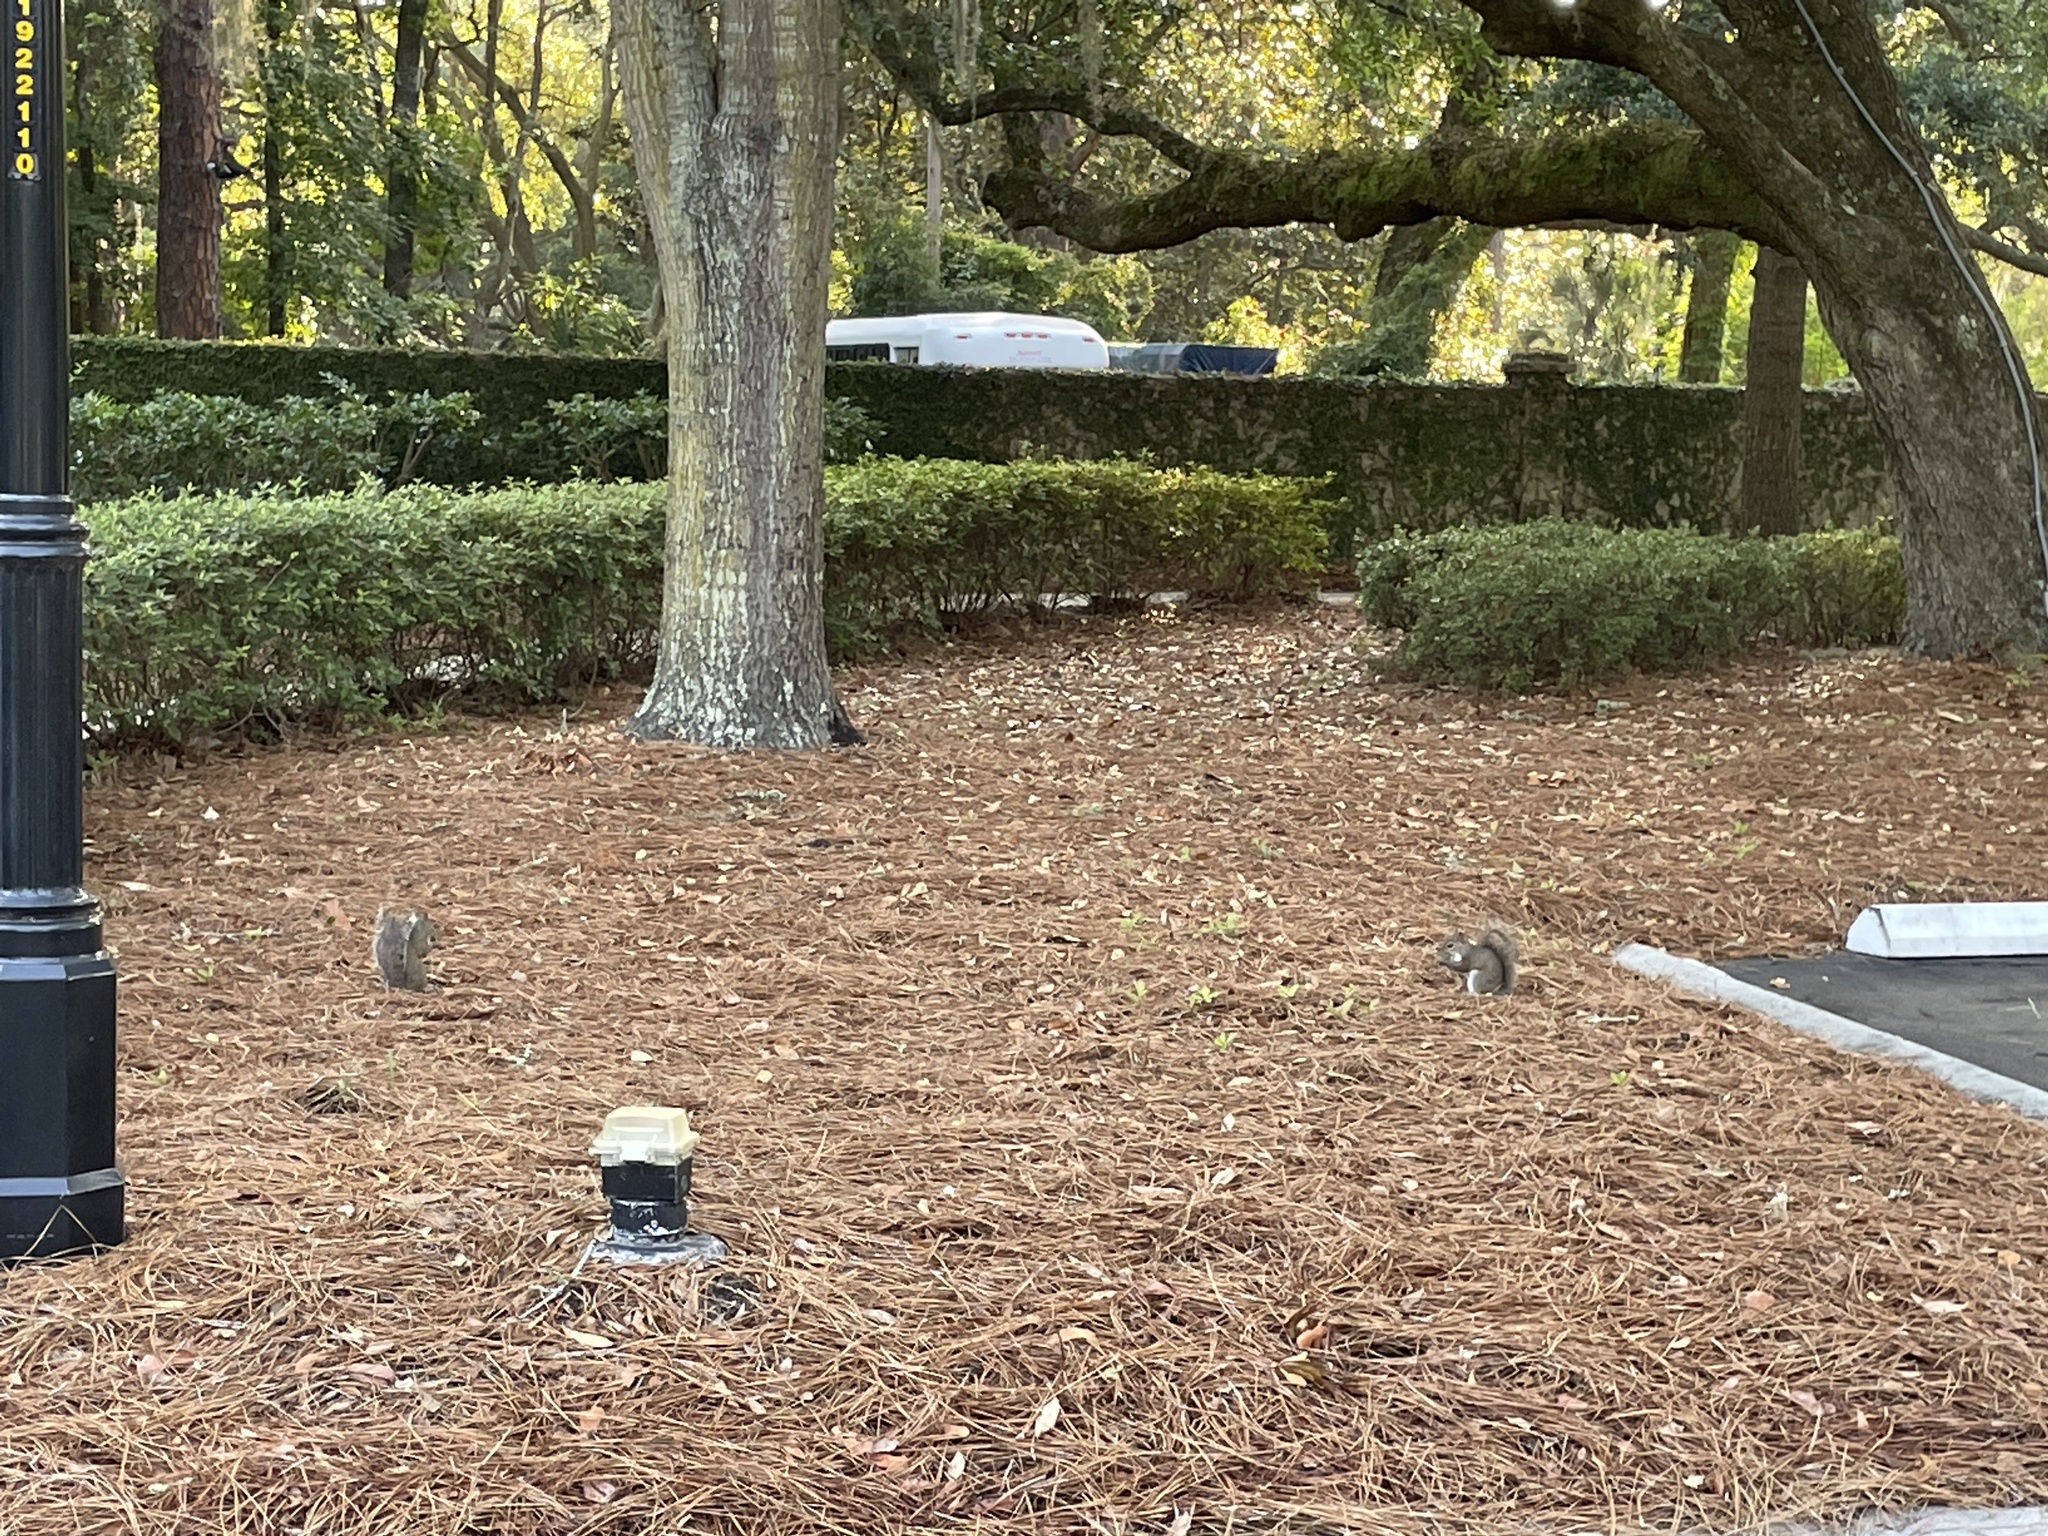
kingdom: Animalia
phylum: Chordata
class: Mammalia
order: Rodentia
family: Sciuridae
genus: Sciurus
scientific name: Sciurus carolinensis
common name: Eastern gray squirrel
